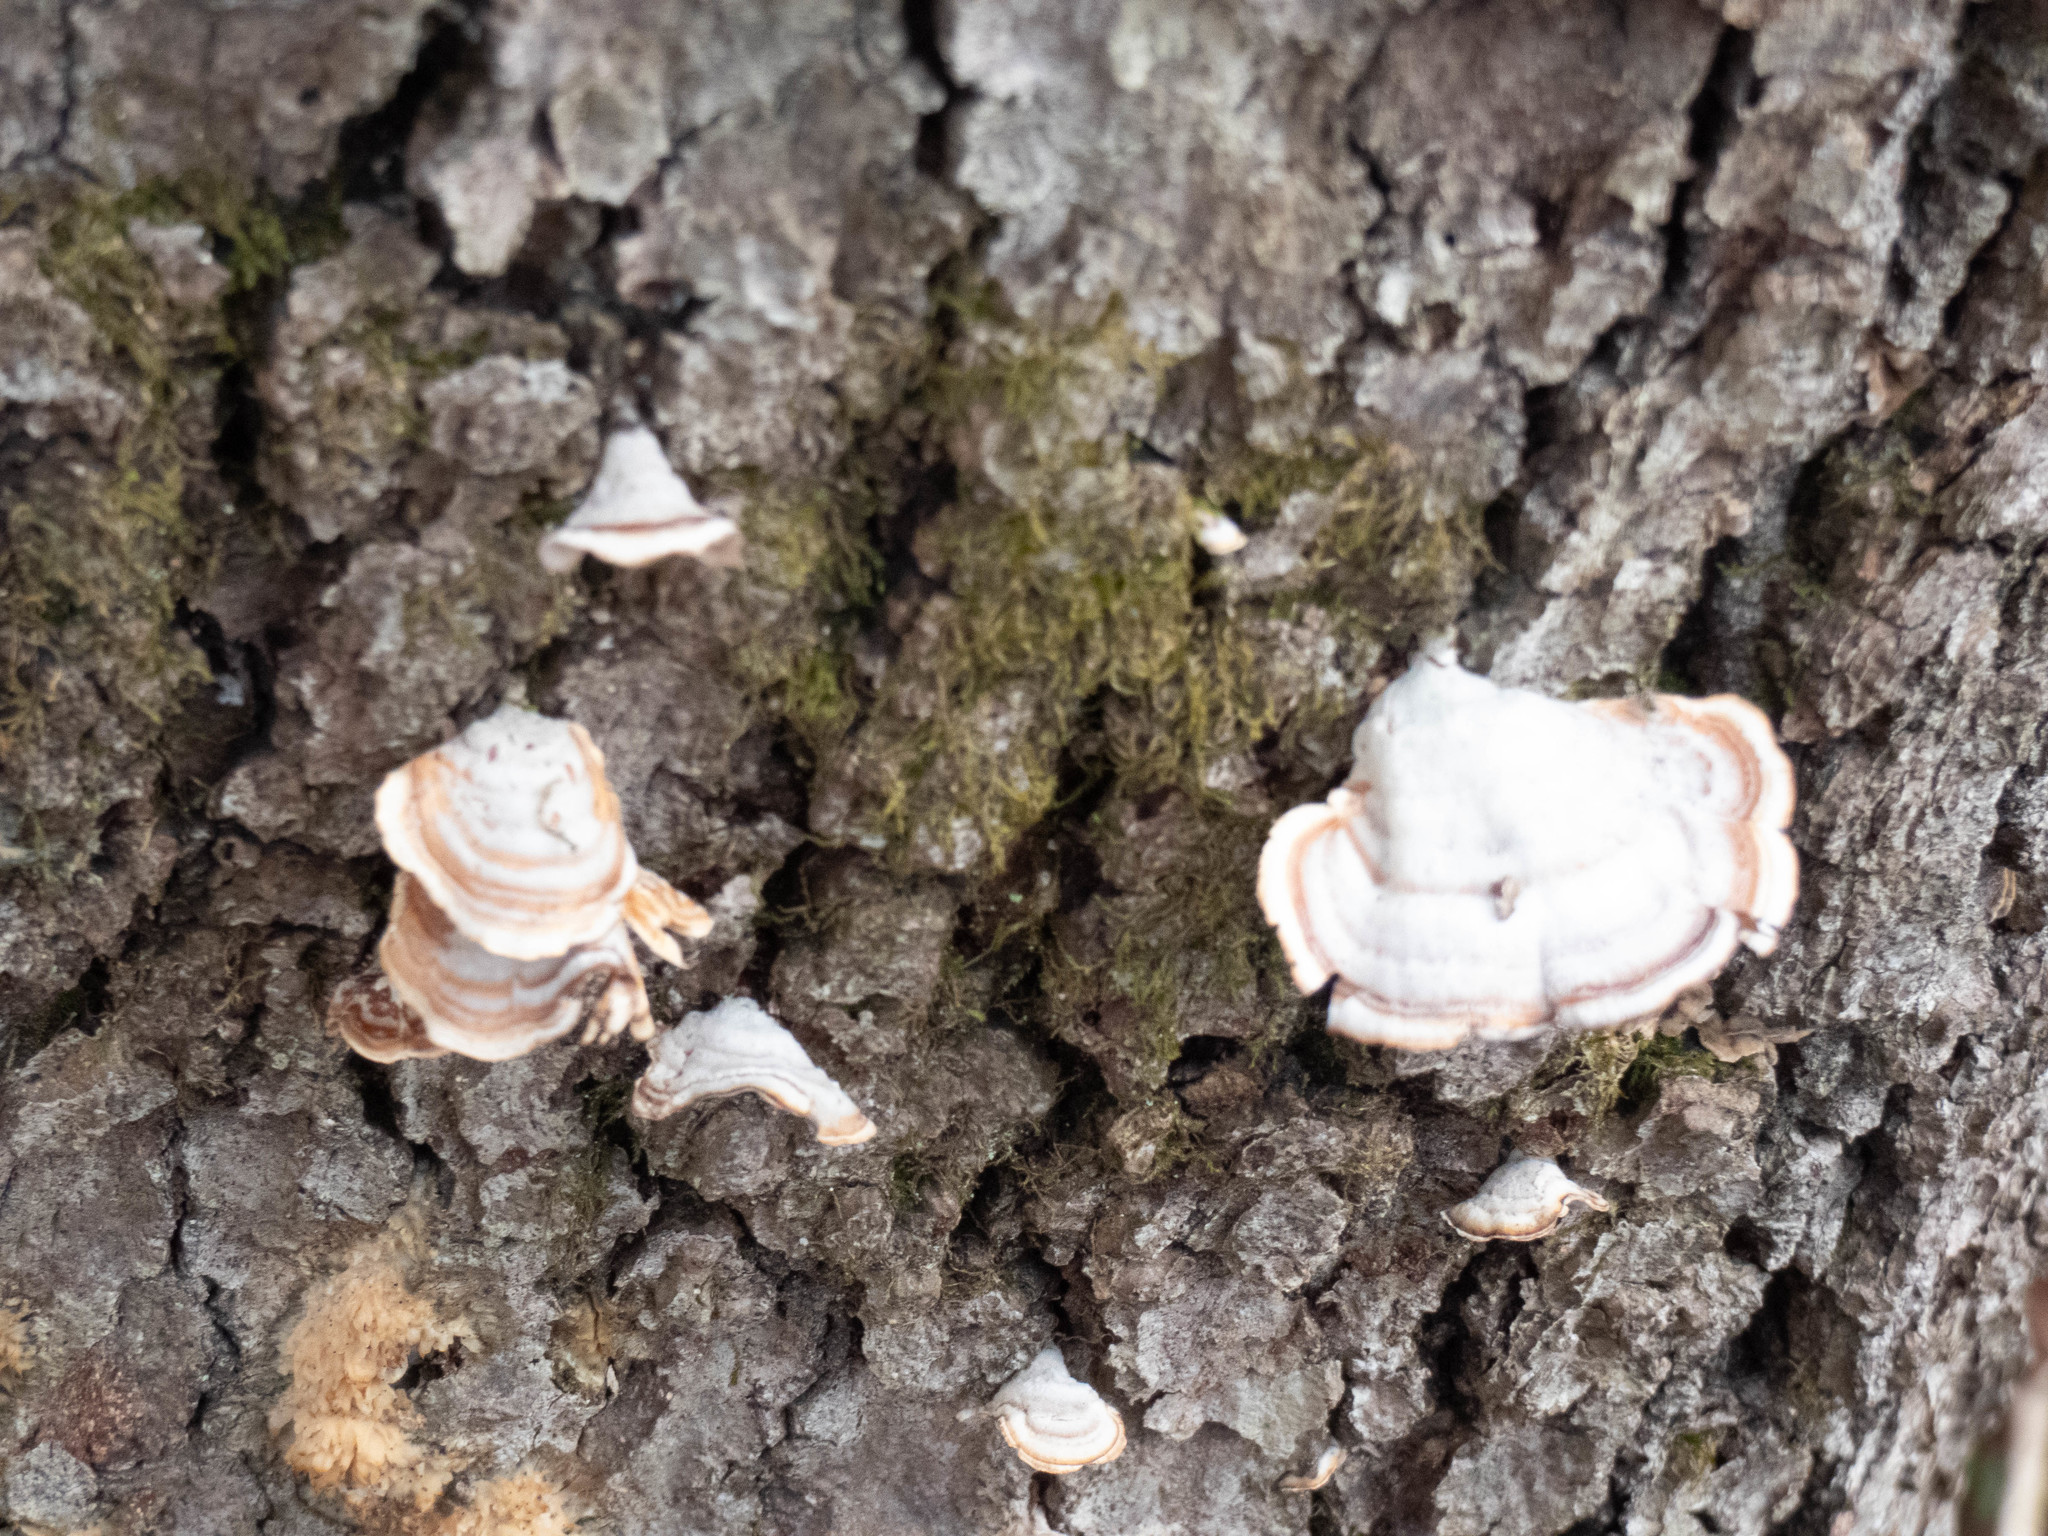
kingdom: Fungi
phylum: Basidiomycota
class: Agaricomycetes
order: Russulales
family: Stereaceae
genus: Stereum
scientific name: Stereum ostrea
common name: False turkeytail
